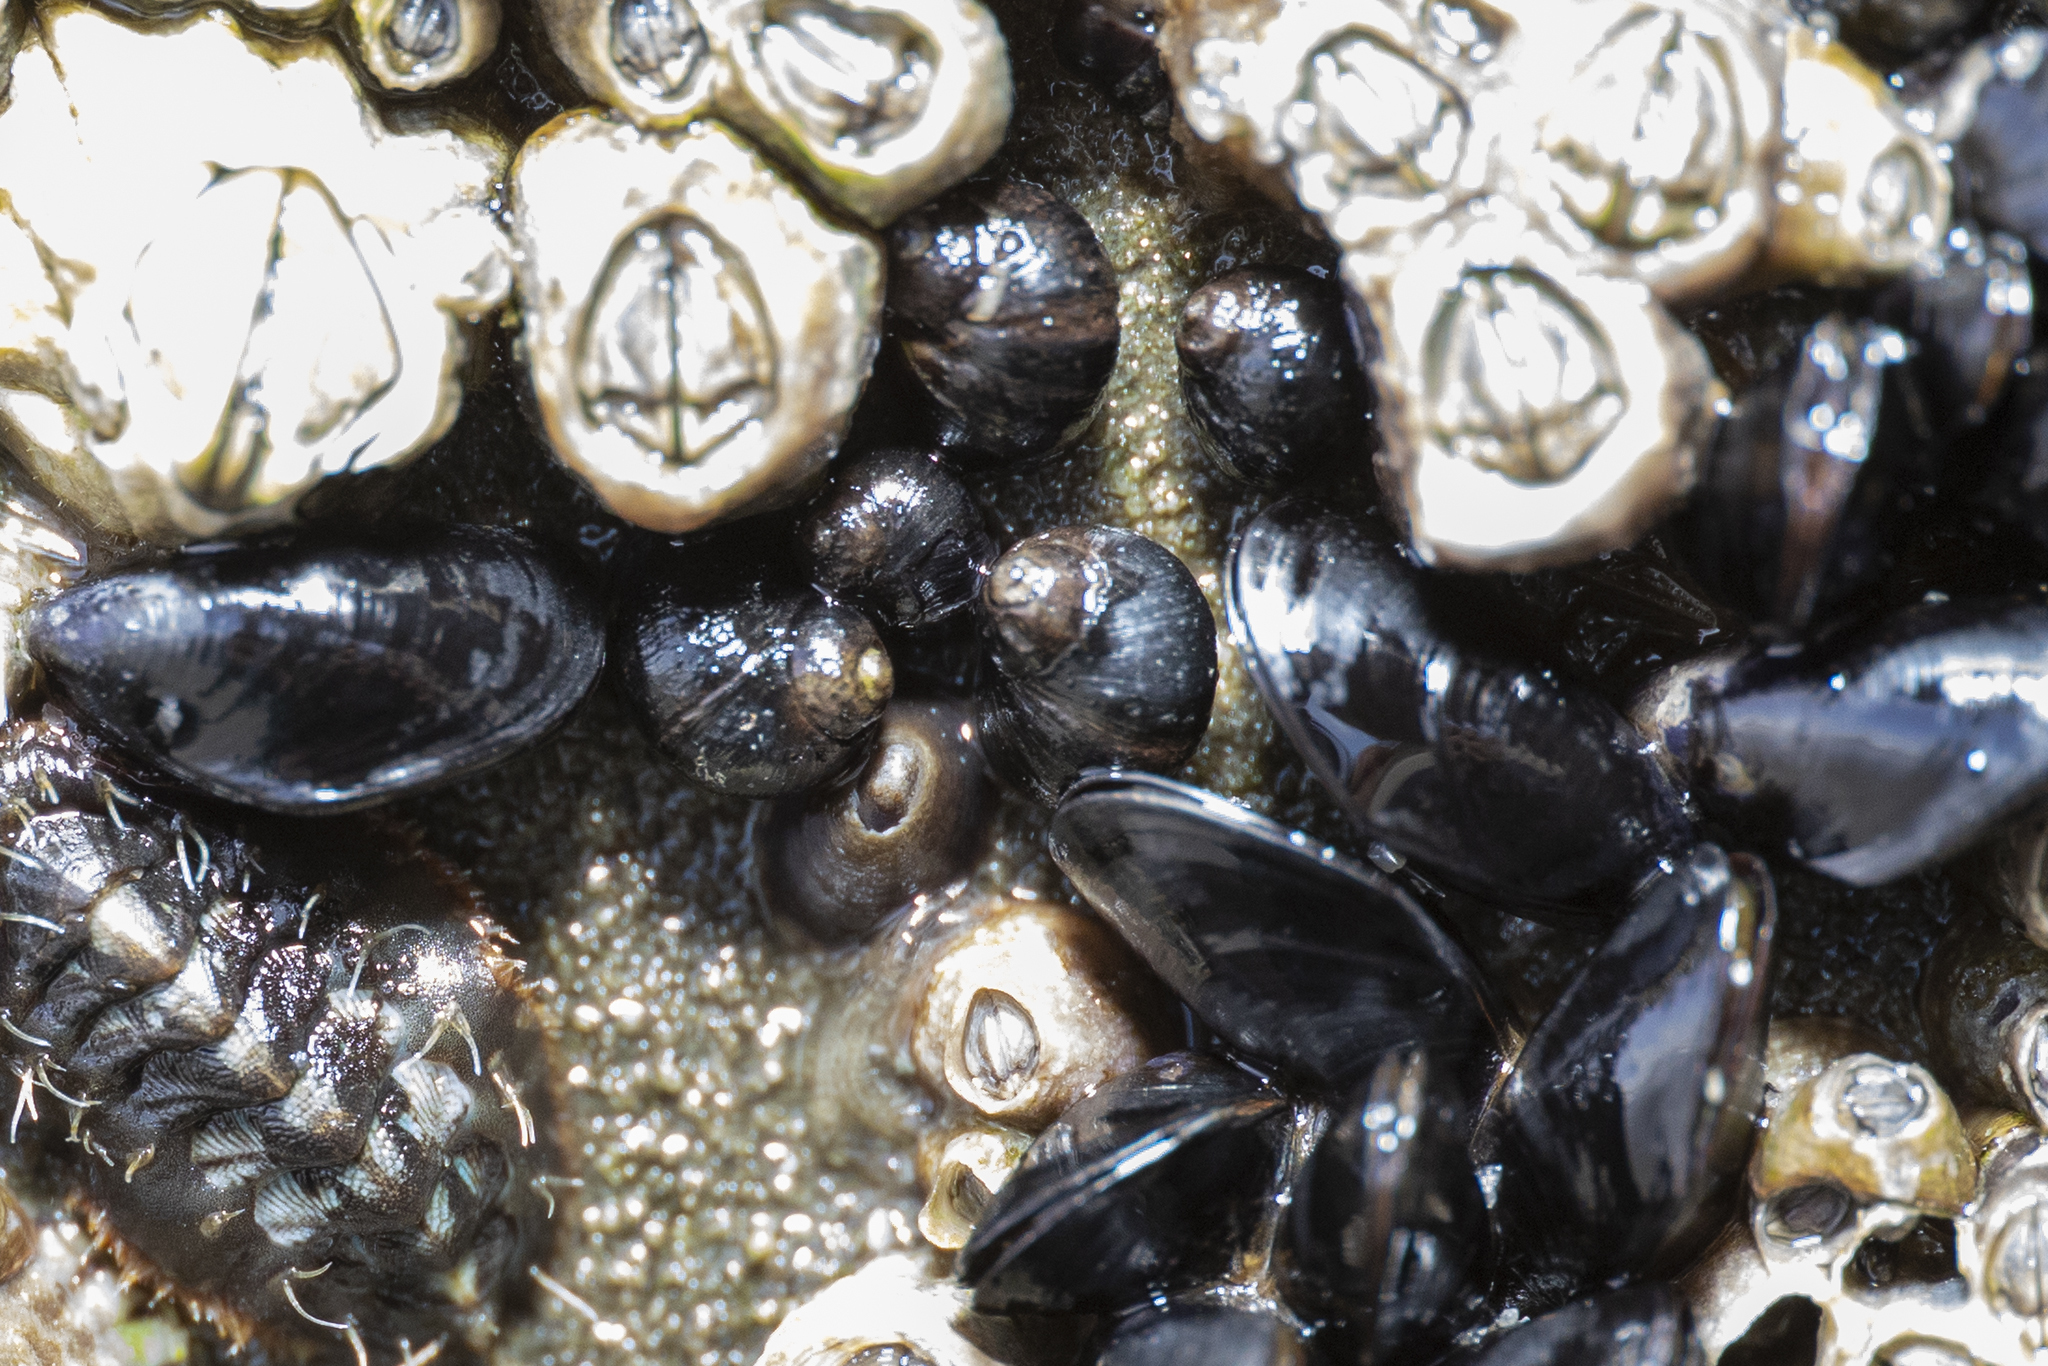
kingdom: Animalia
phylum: Mollusca
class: Gastropoda
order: Littorinimorpha
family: Littorinidae
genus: Austrolittorina
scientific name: Austrolittorina cincta
